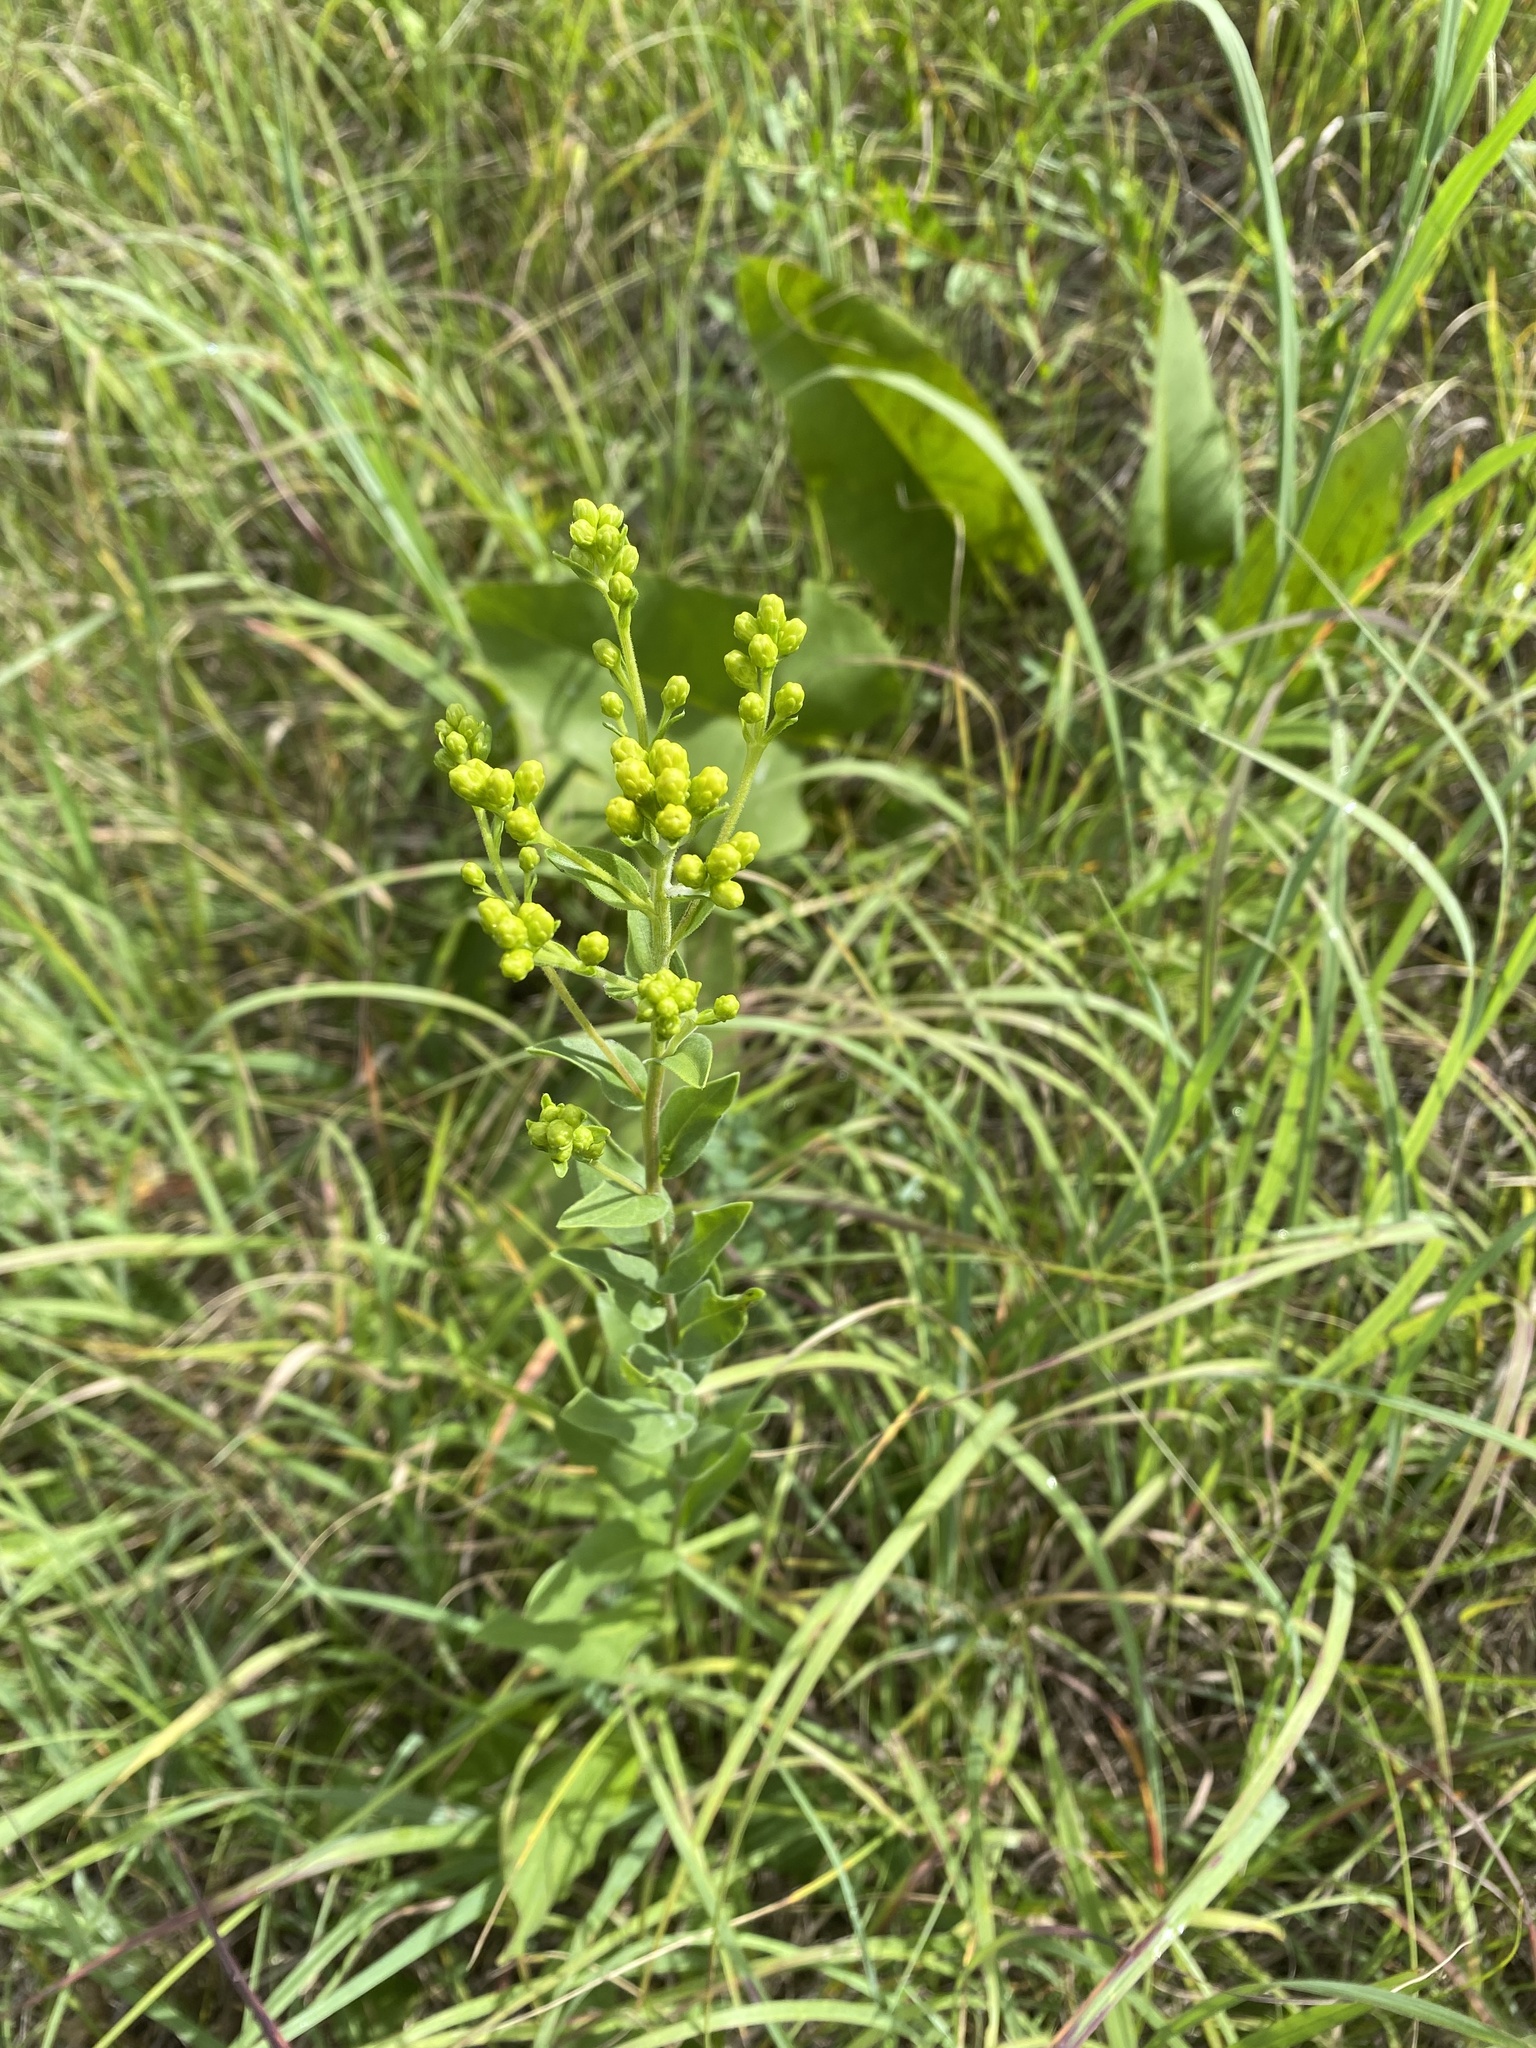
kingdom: Plantae
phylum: Tracheophyta
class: Magnoliopsida
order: Asterales
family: Asteraceae
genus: Solidago
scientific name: Solidago rigida
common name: Rigid goldenrod
